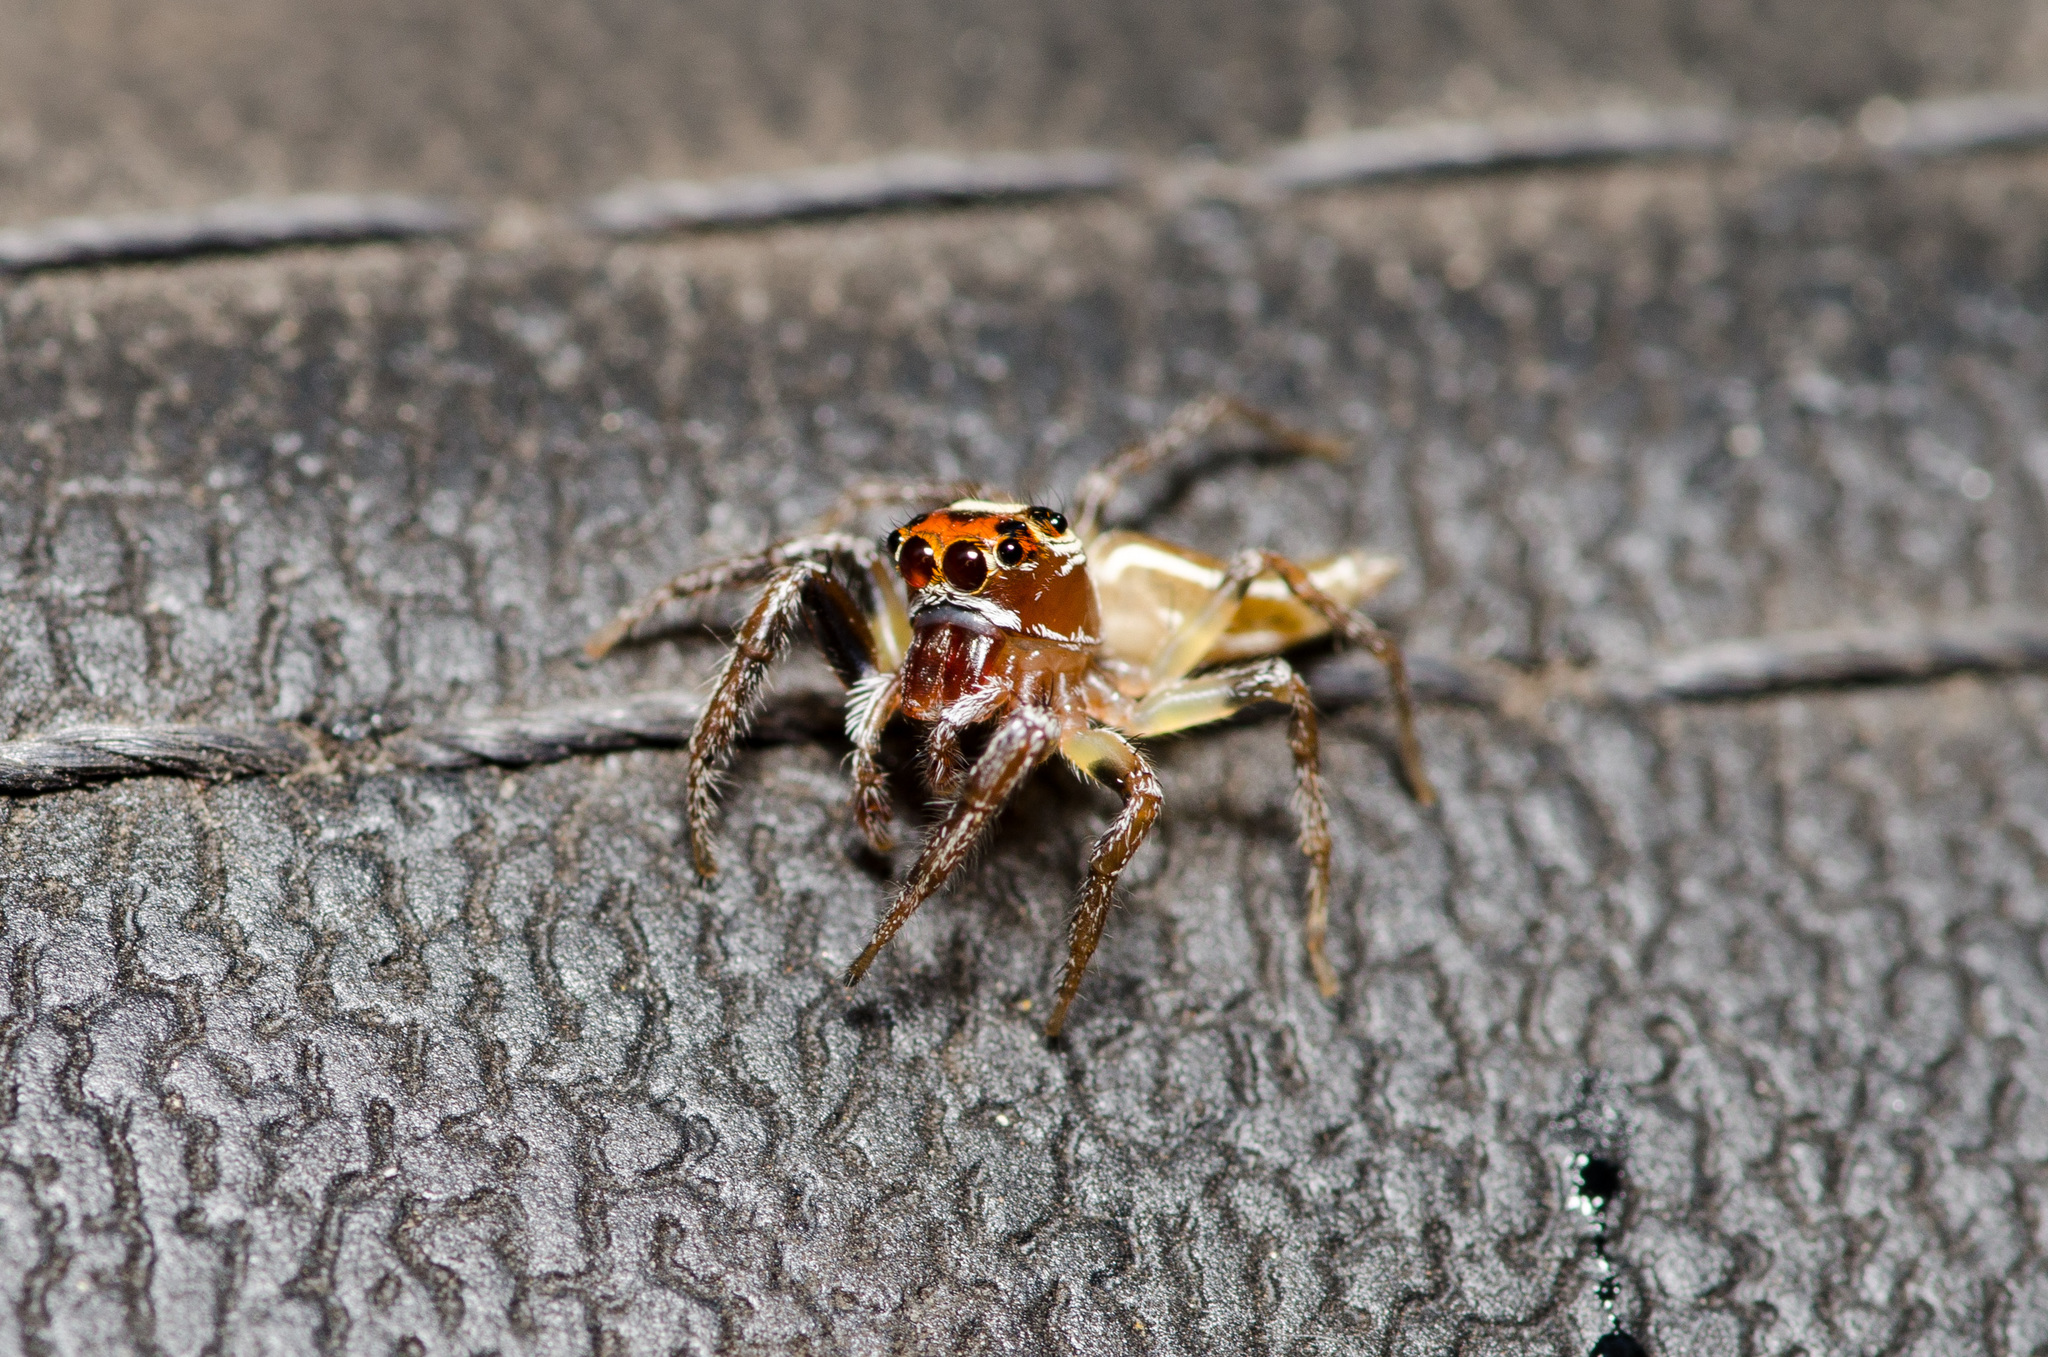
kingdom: Animalia
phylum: Arthropoda
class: Arachnida
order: Araneae
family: Salticidae
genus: Colonus
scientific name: Colonus sylvanus
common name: Jumping spiders
